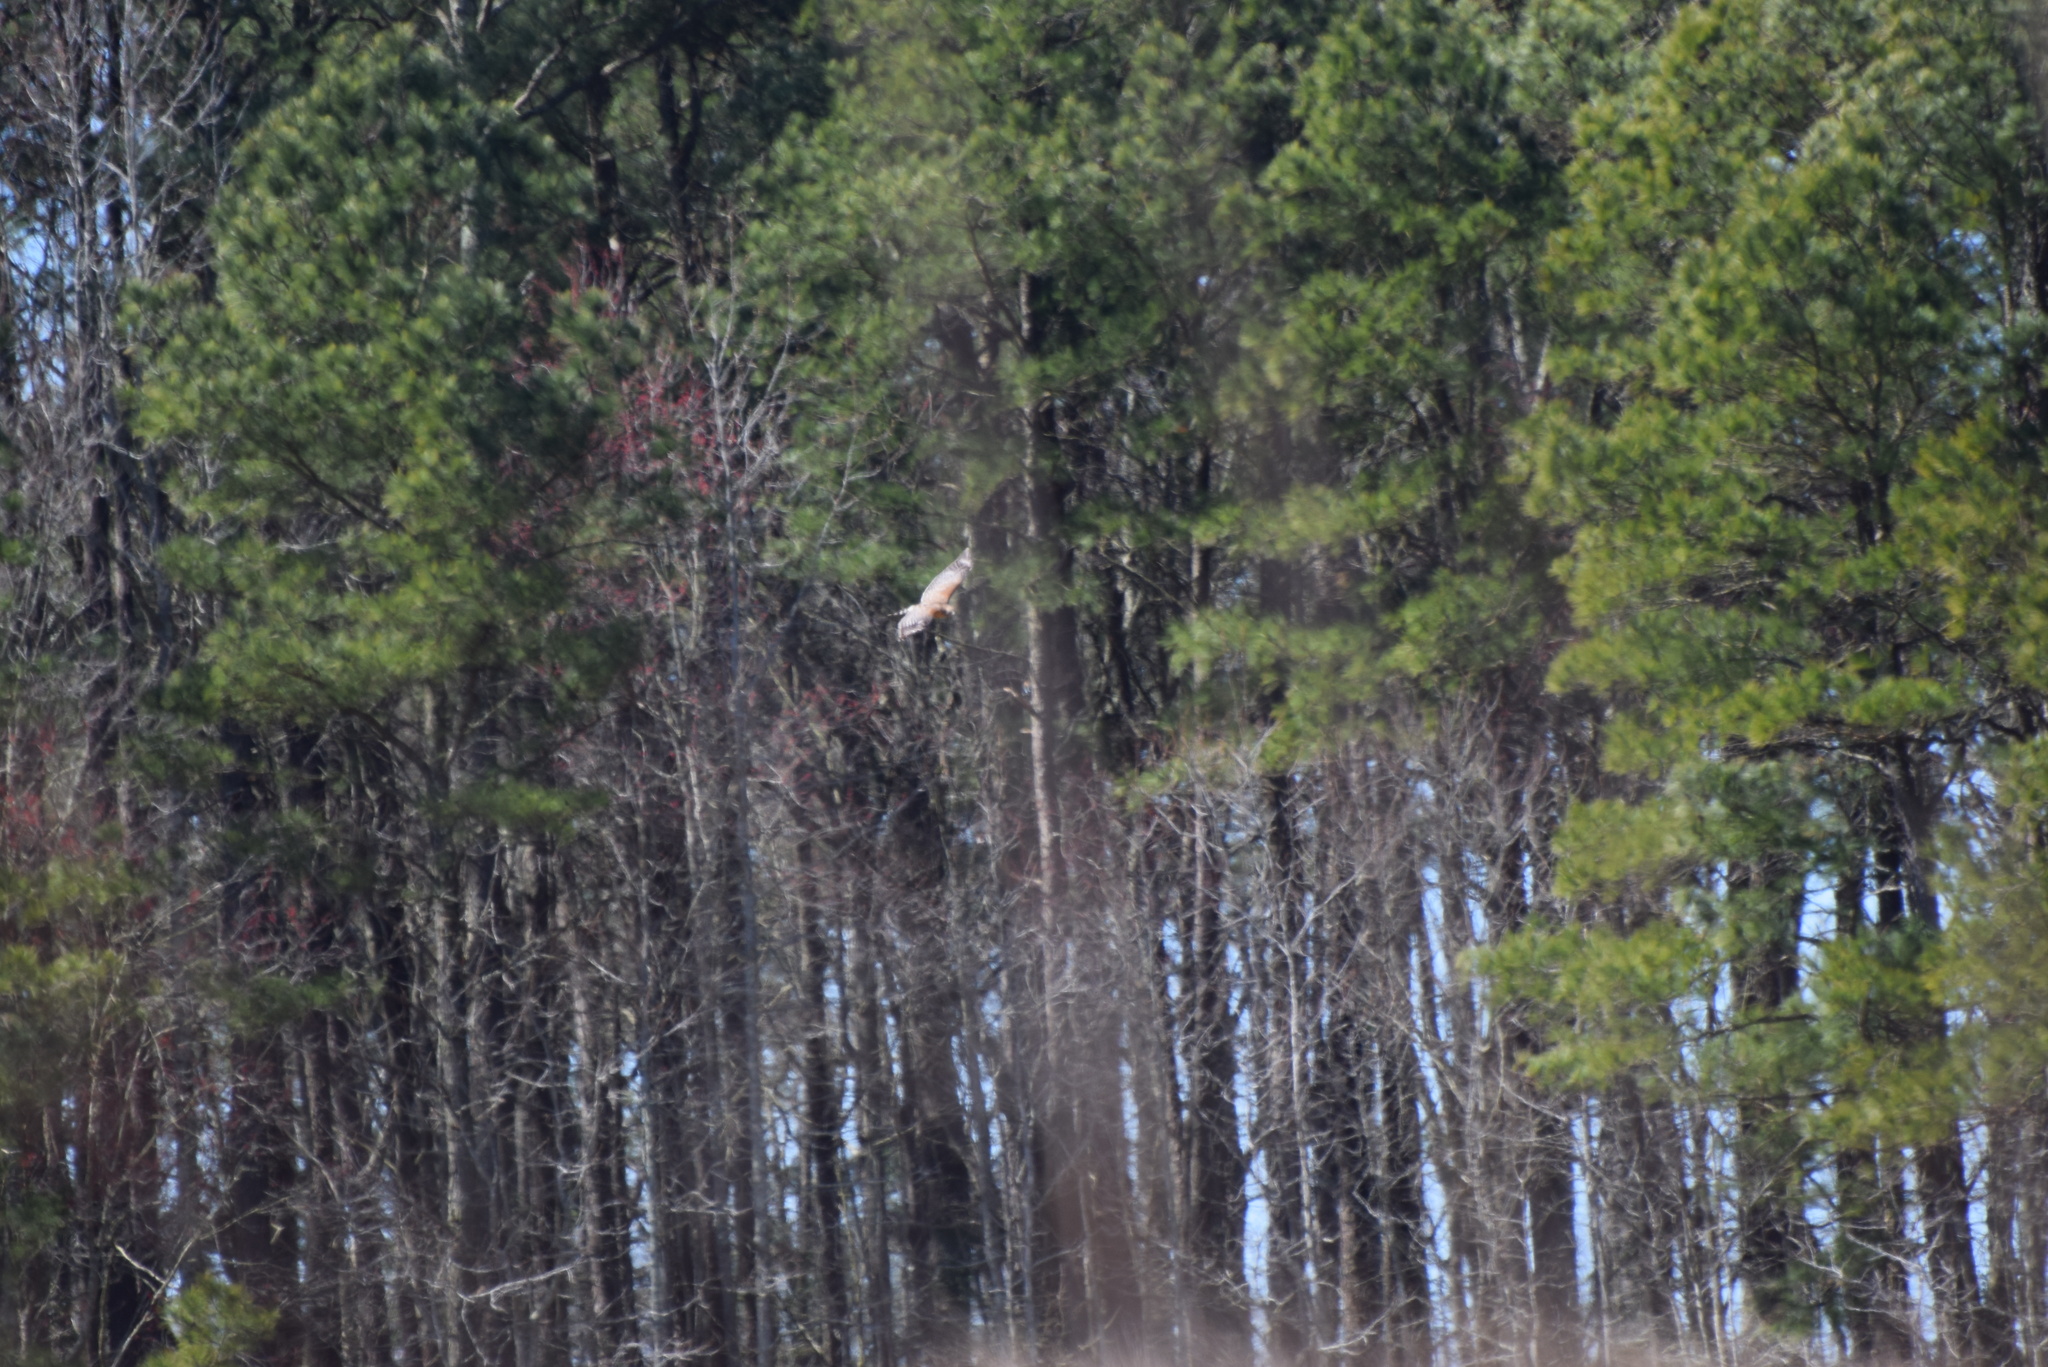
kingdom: Animalia
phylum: Chordata
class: Aves
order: Accipitriformes
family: Accipitridae
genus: Buteo
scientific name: Buteo lineatus
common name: Red-shouldered hawk
